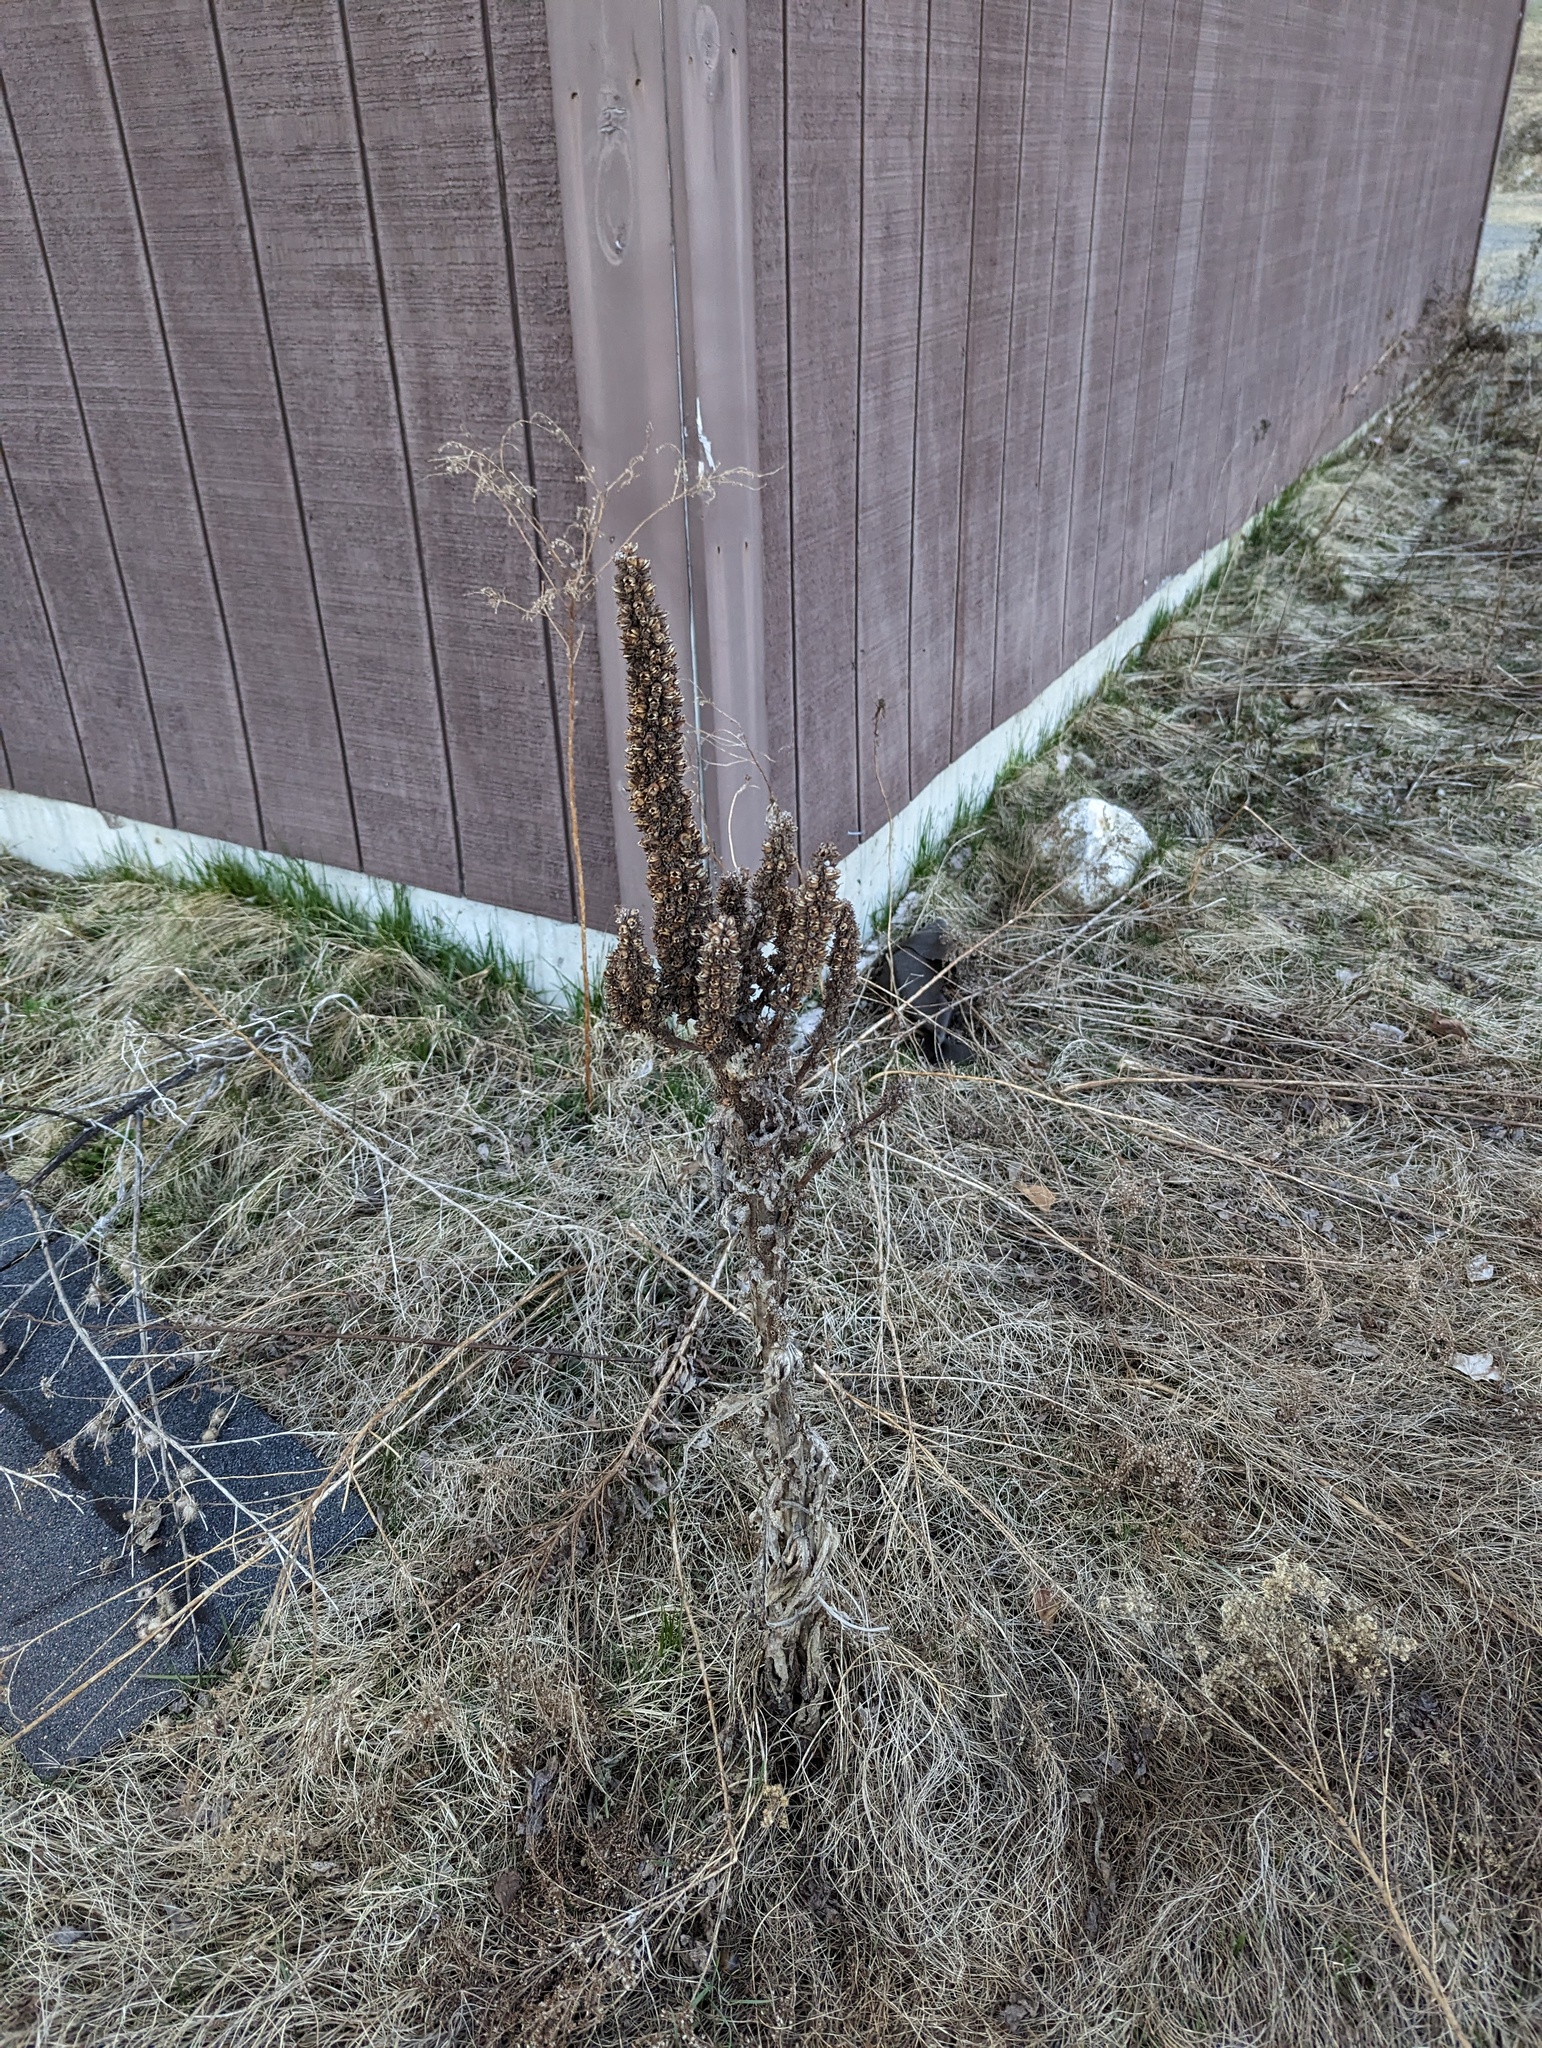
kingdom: Plantae
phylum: Tracheophyta
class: Magnoliopsida
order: Lamiales
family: Scrophulariaceae
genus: Verbascum
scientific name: Verbascum thapsus
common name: Common mullein
